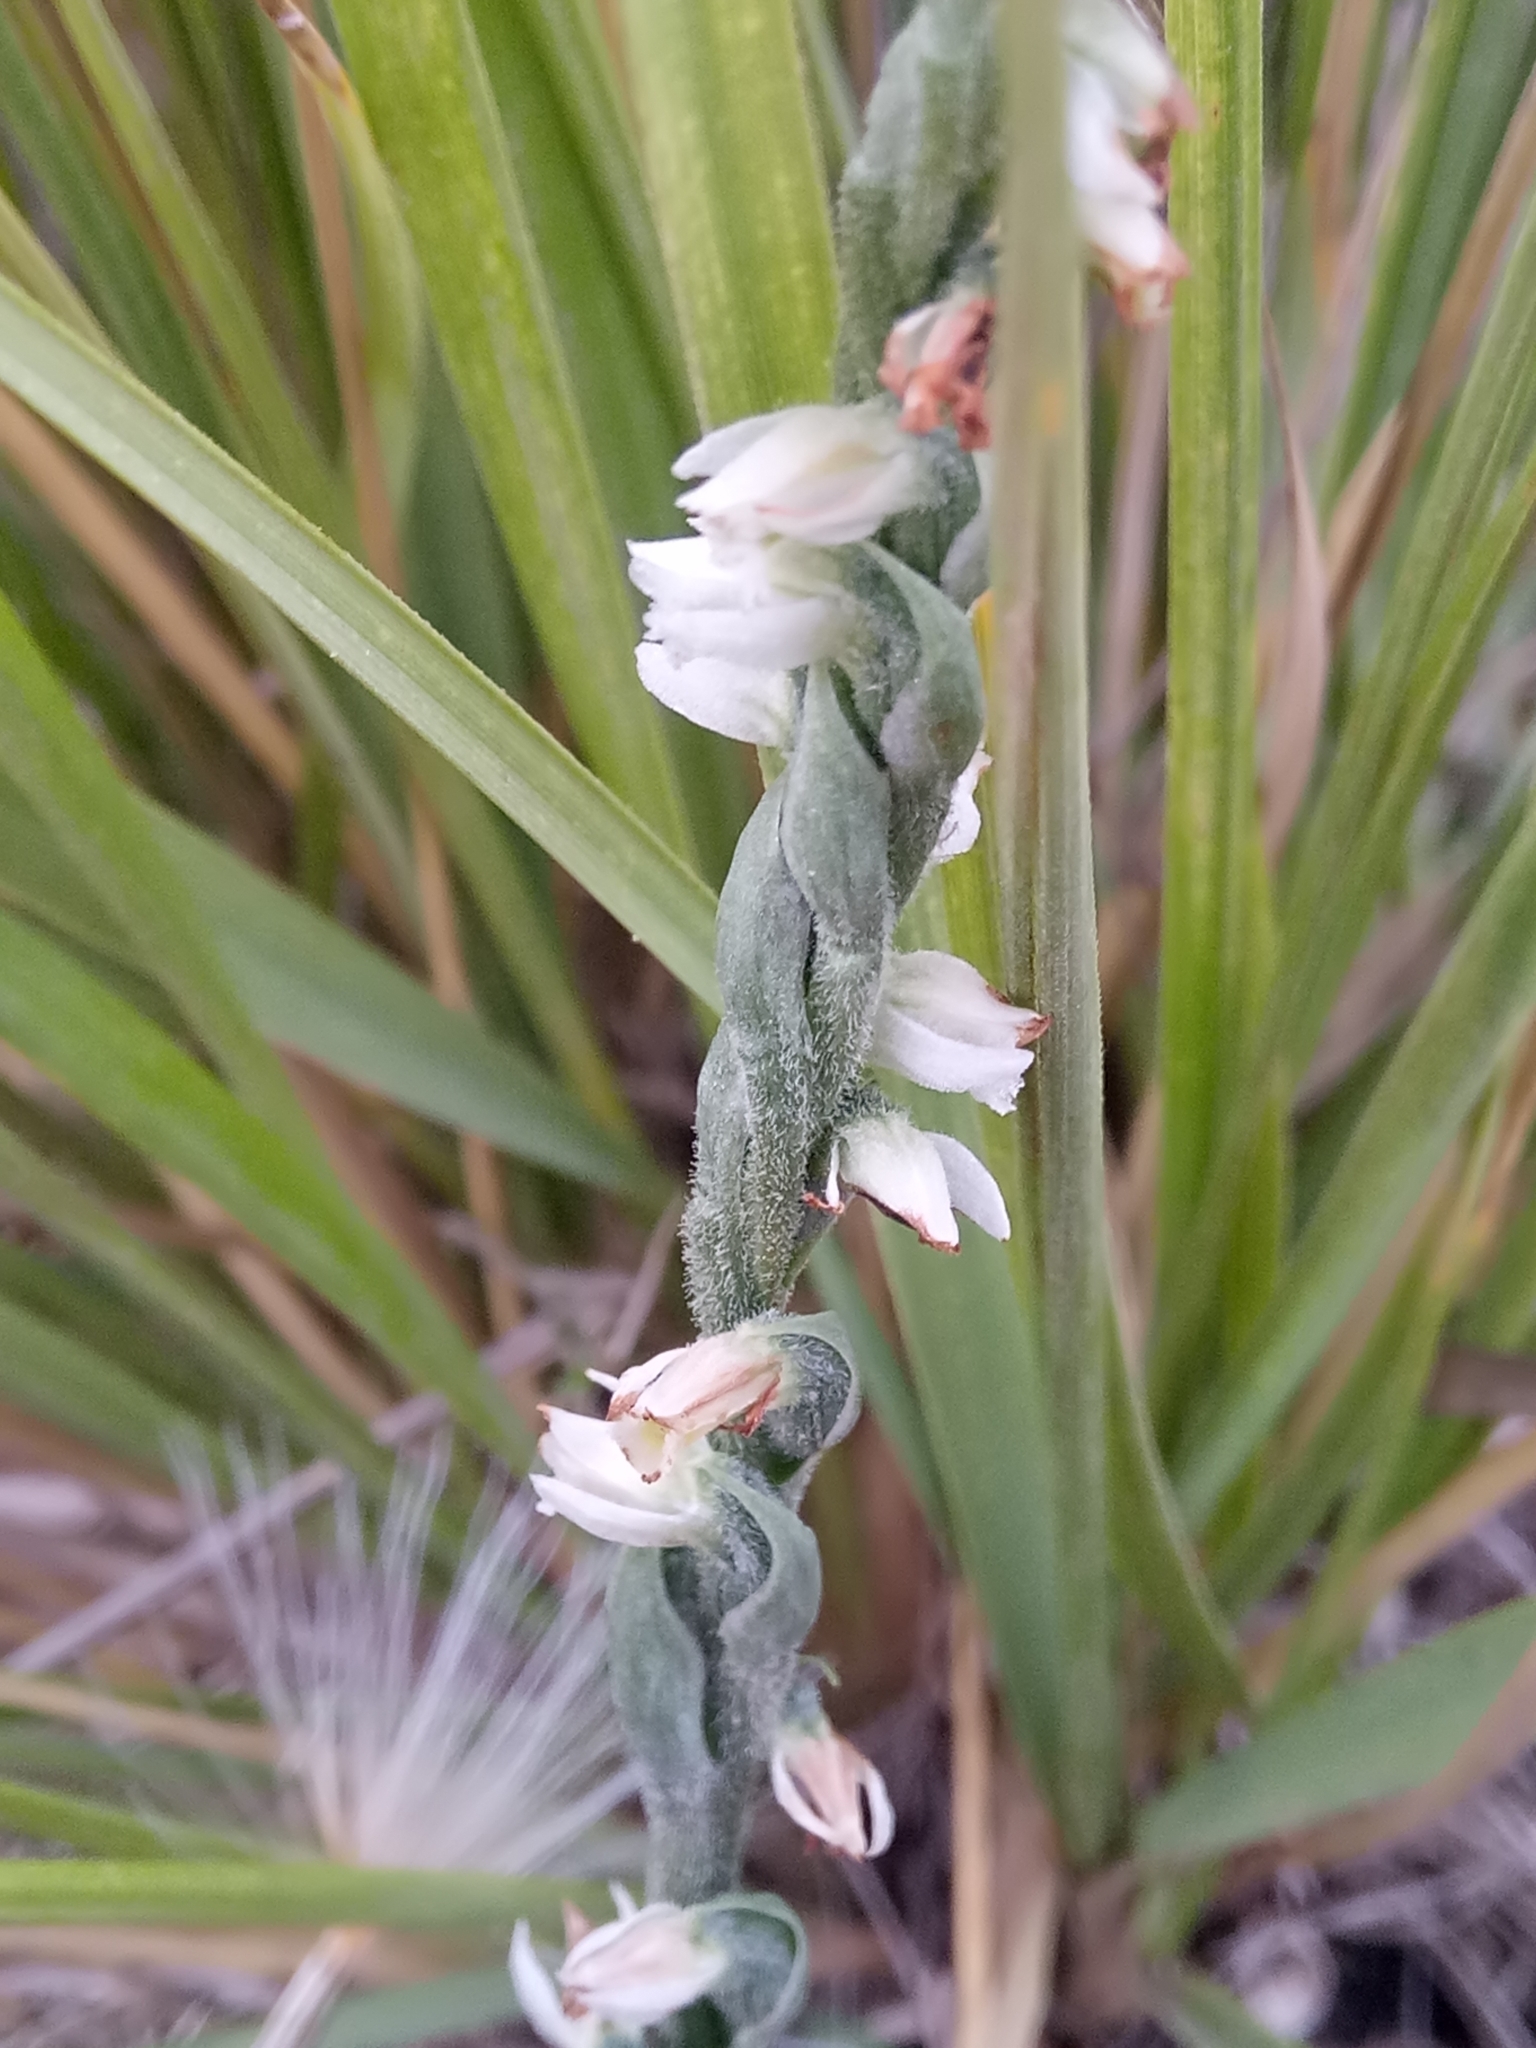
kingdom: Plantae
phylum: Tracheophyta
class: Liliopsida
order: Asparagales
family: Orchidaceae
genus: Spiranthes
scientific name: Spiranthes spiralis
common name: Autumn lady's-tresses
